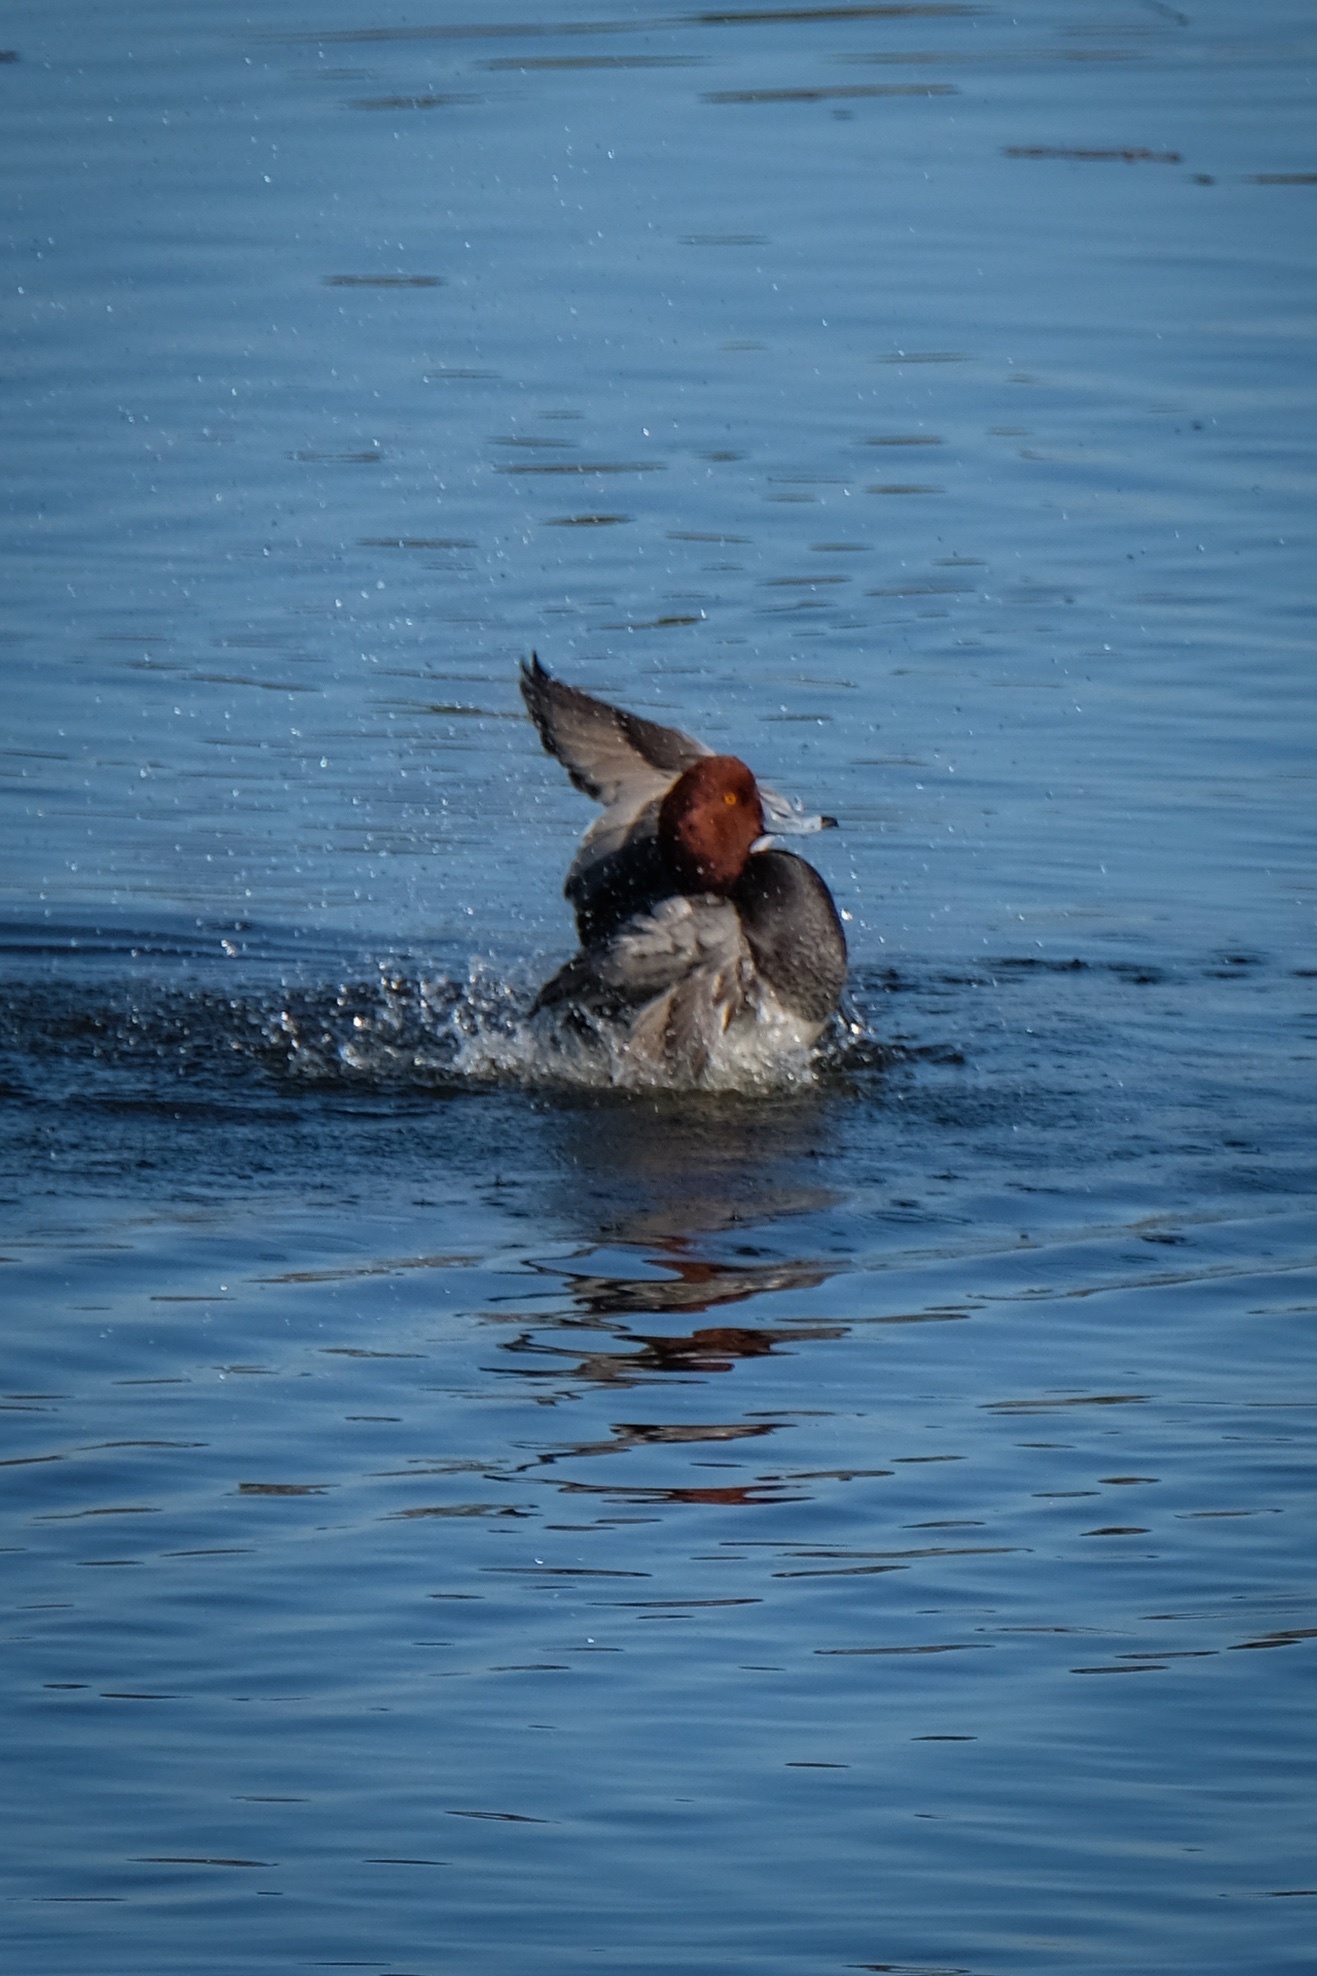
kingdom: Animalia
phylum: Chordata
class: Aves
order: Anseriformes
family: Anatidae
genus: Aythya
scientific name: Aythya americana
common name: Redhead
